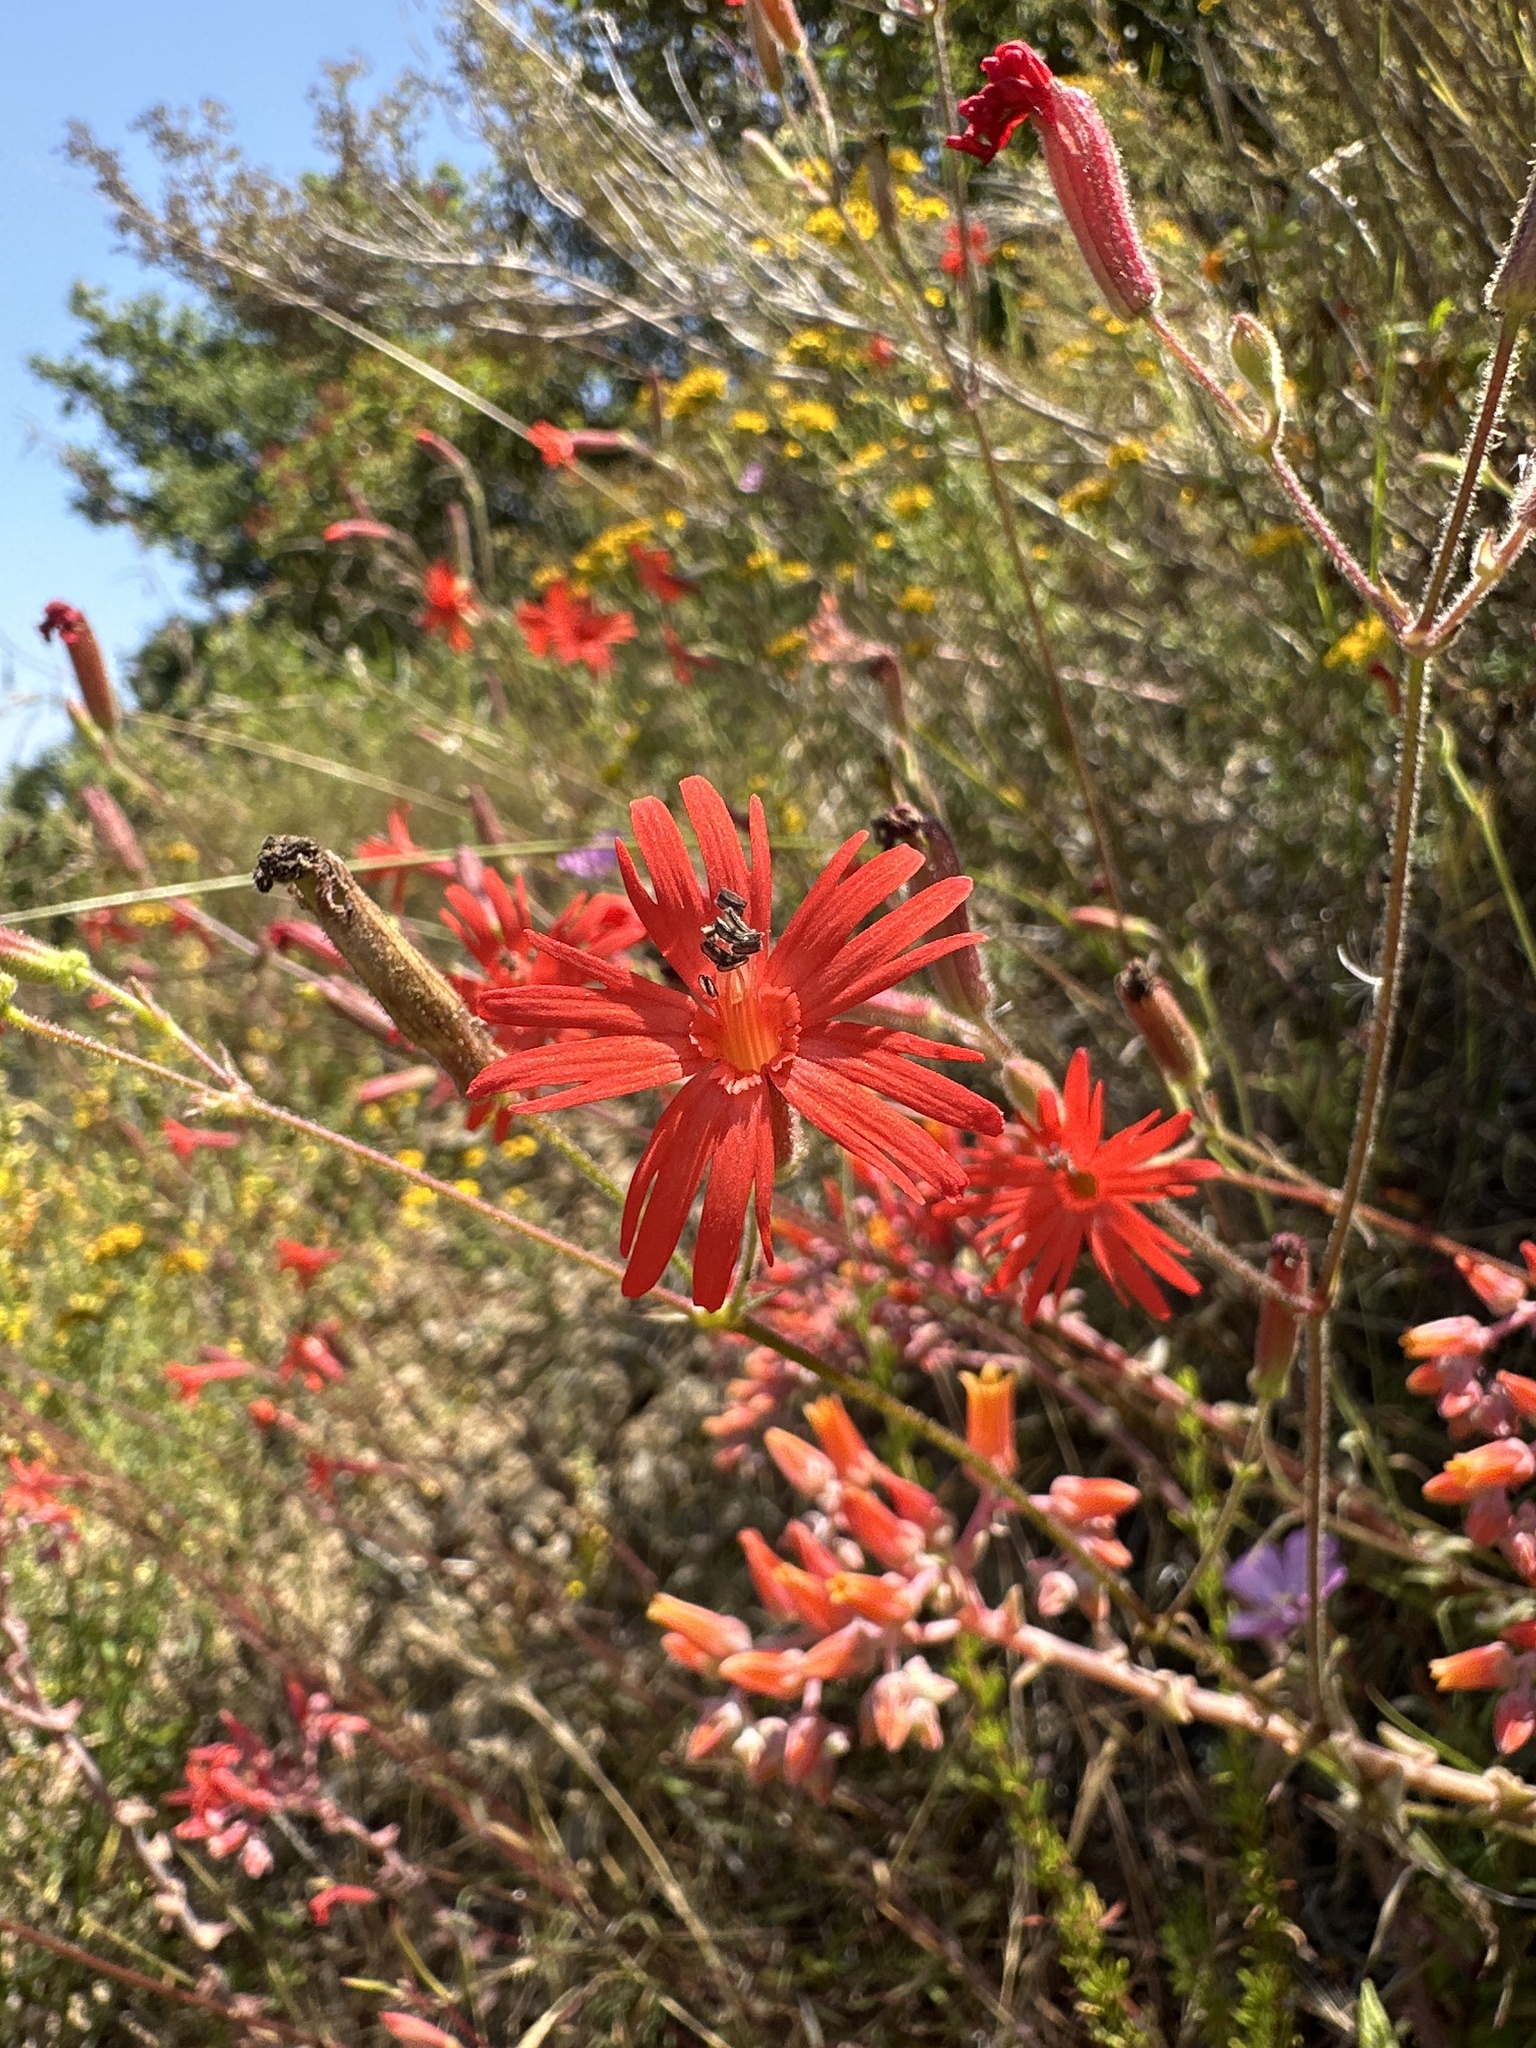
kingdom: Plantae
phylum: Tracheophyta
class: Magnoliopsida
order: Caryophyllales
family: Caryophyllaceae
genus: Silene
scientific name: Silene laciniata
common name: Indian-pink
